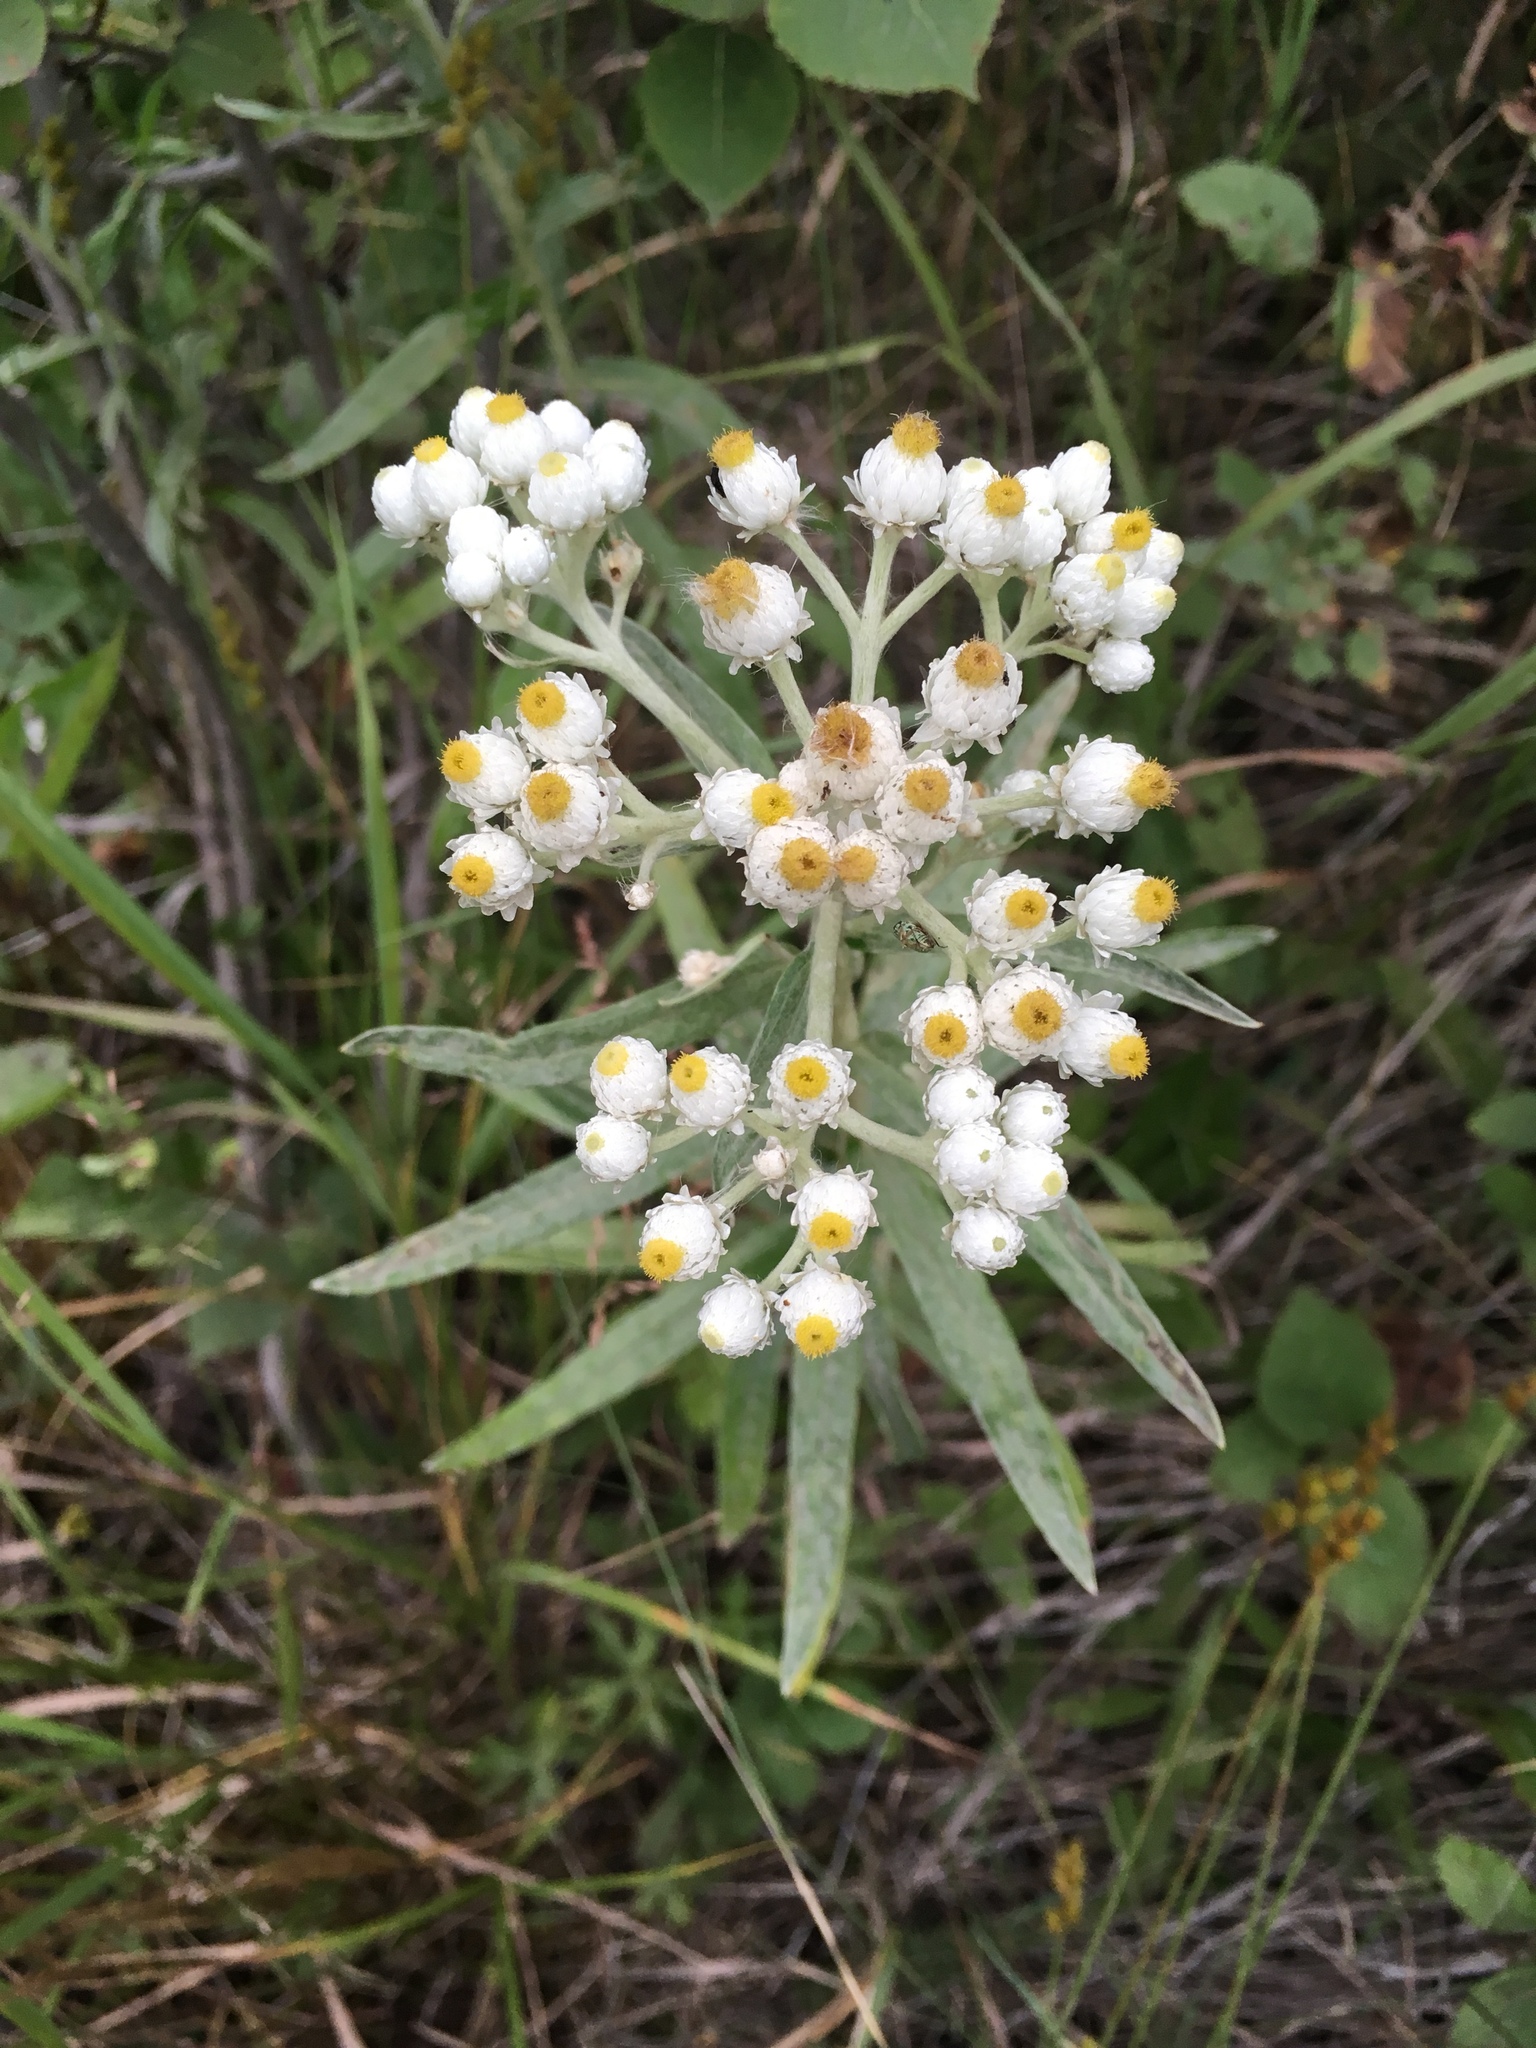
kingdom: Plantae
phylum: Tracheophyta
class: Magnoliopsida
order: Asterales
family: Asteraceae
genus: Anaphalis
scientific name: Anaphalis margaritacea
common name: Pearly everlasting
